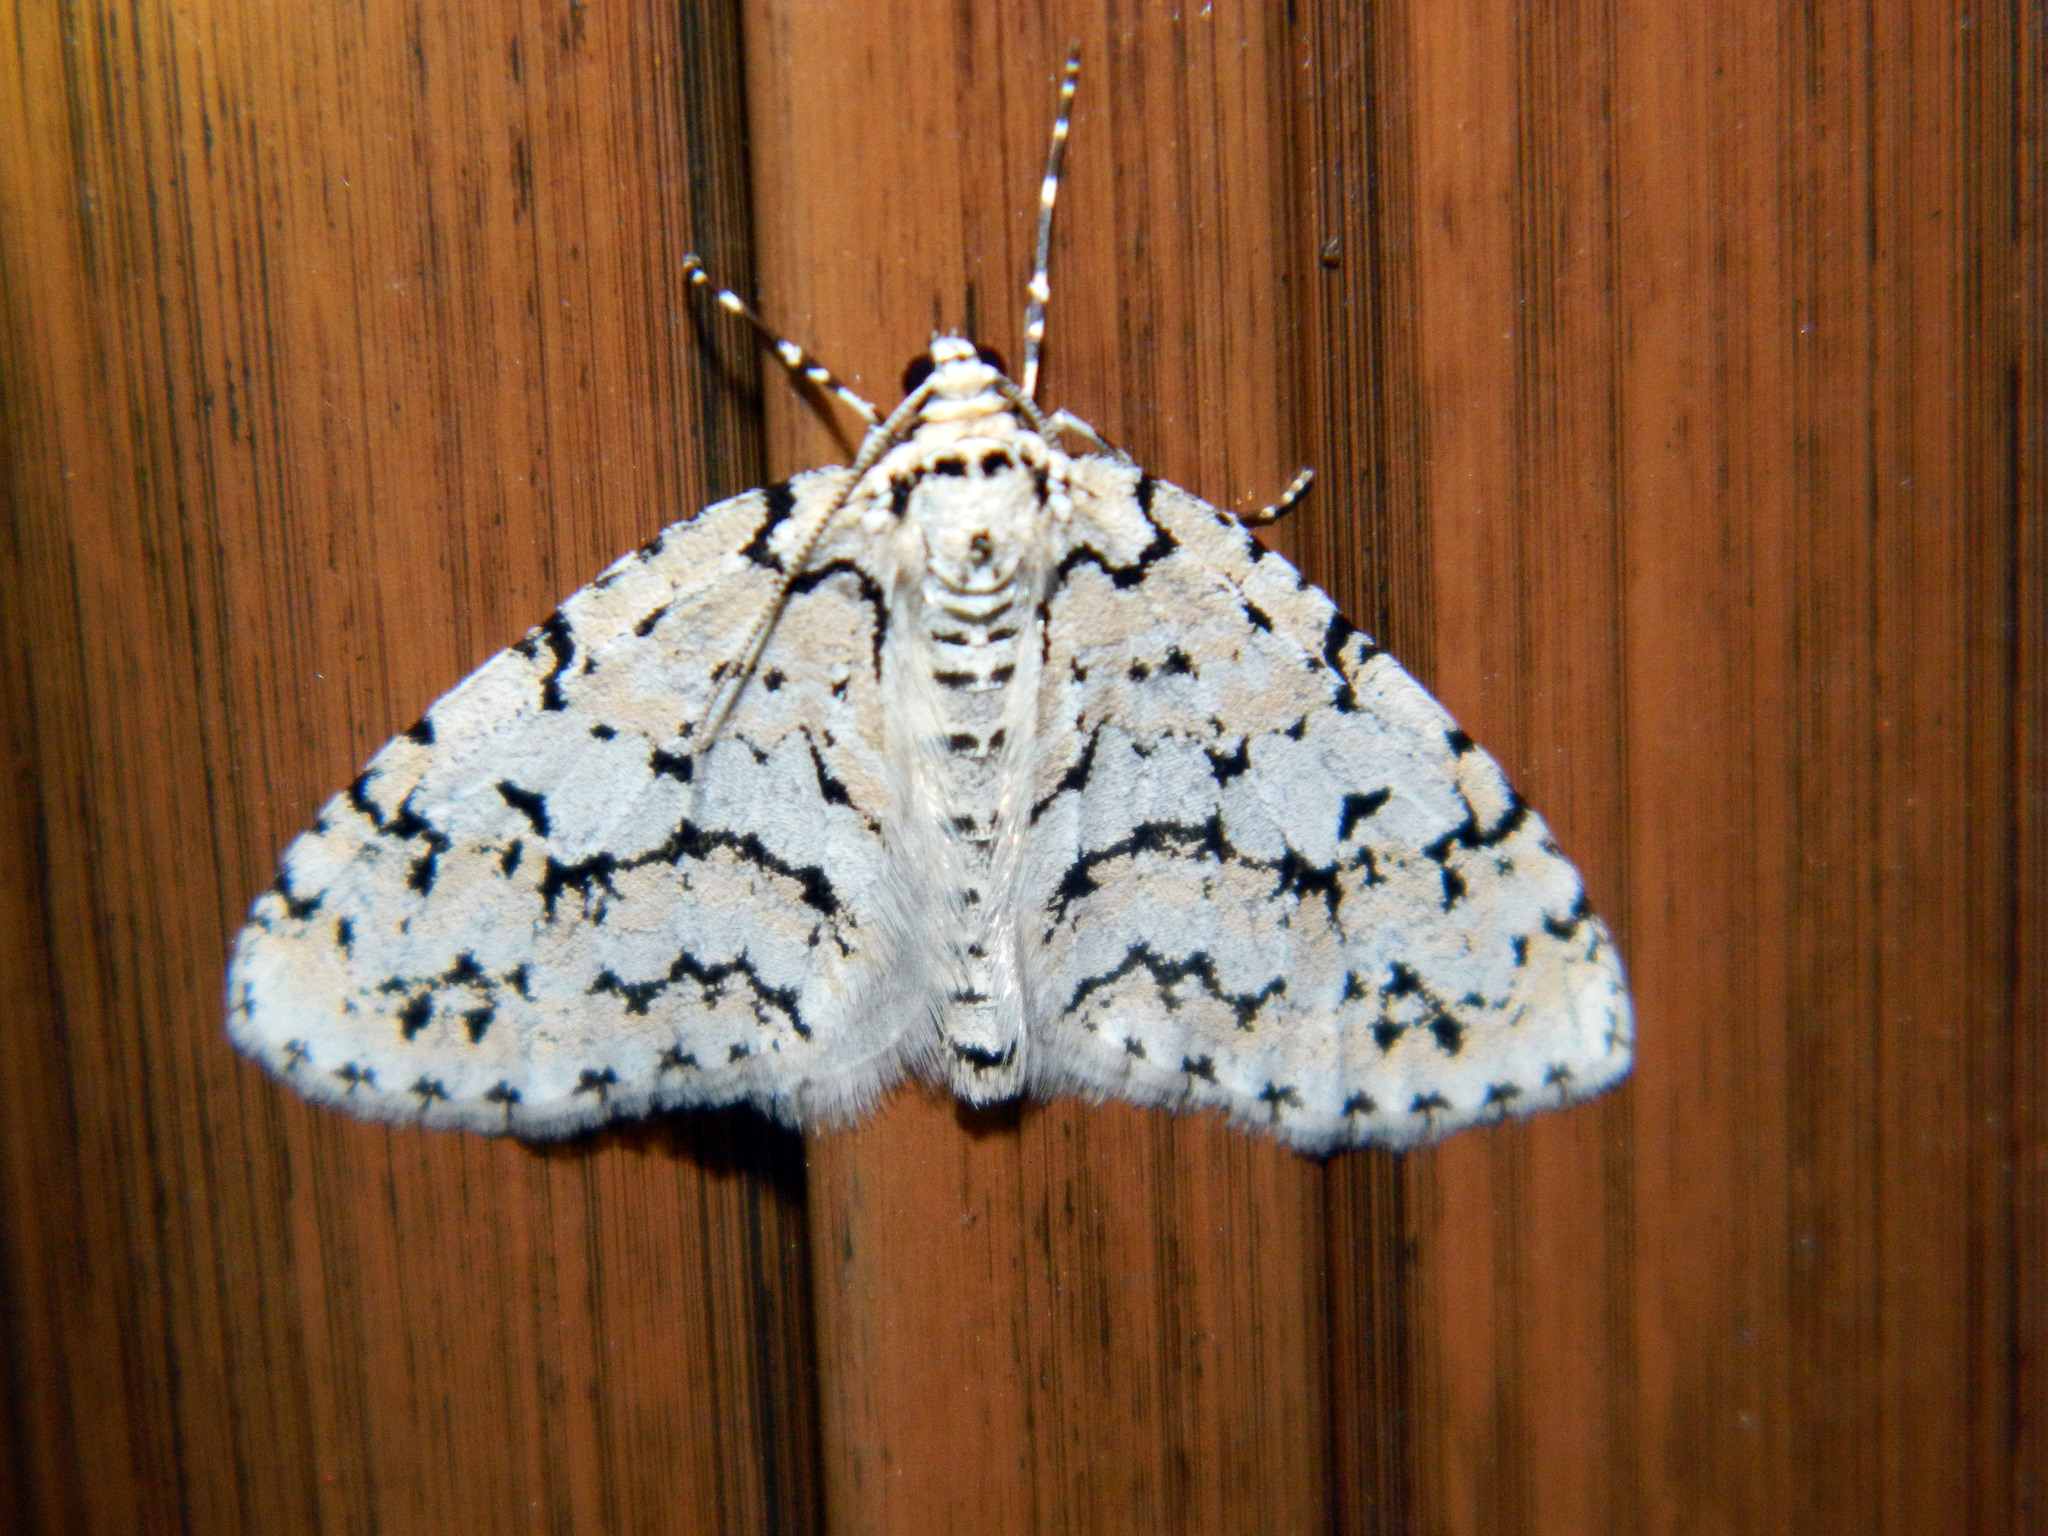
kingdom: Animalia
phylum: Arthropoda
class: Insecta
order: Lepidoptera
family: Geometridae
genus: Cladara
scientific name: Cladara atroliturata
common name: Scribbler
